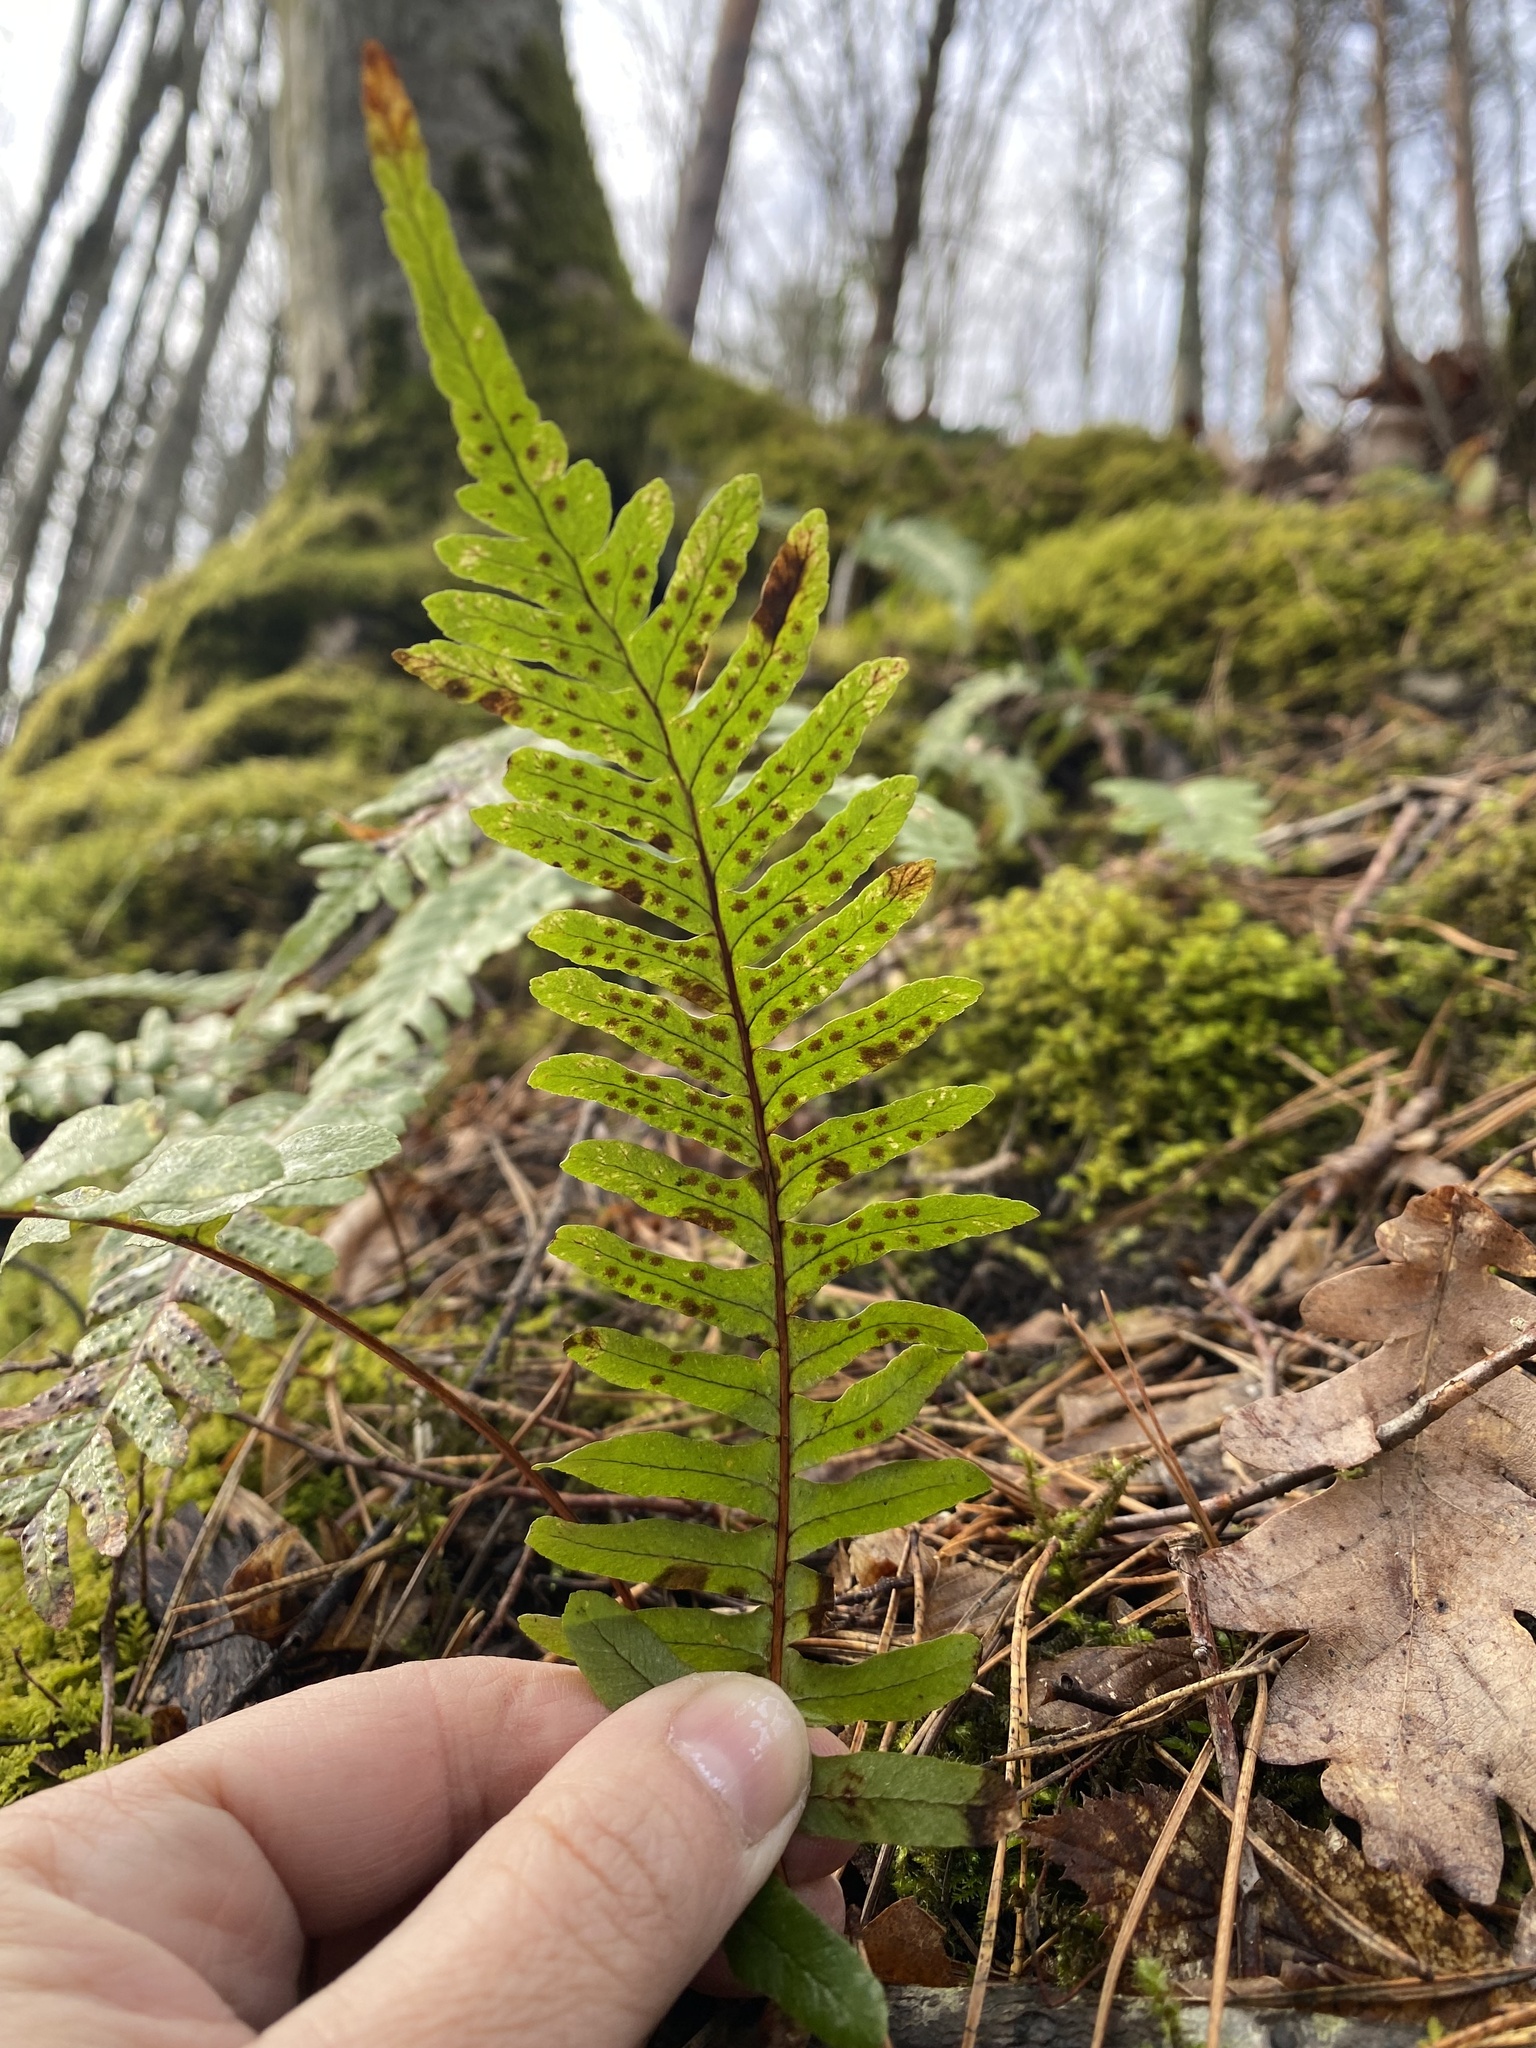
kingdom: Plantae
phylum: Tracheophyta
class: Polypodiopsida
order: Polypodiales
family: Polypodiaceae
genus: Polypodium
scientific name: Polypodium vulgare
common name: Common polypody
